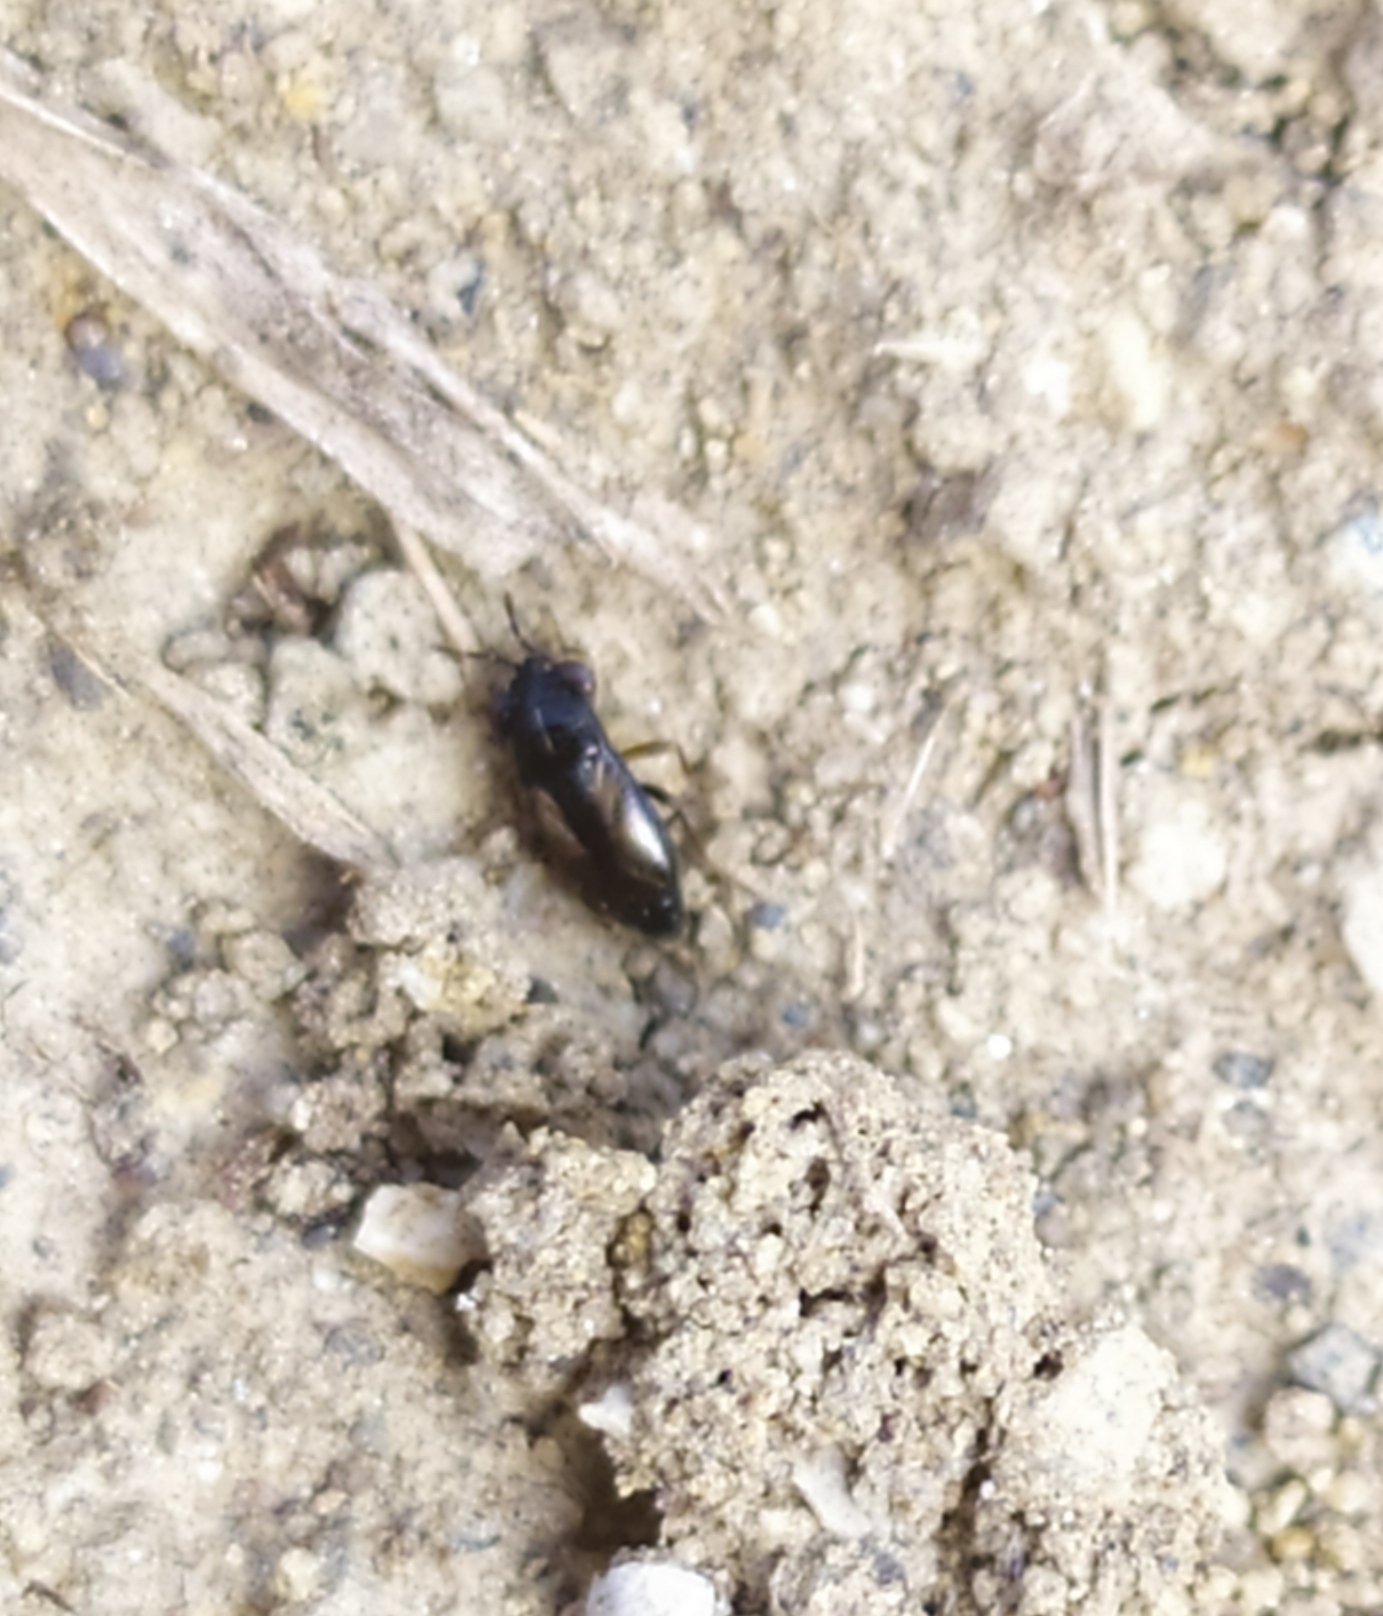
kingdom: Animalia
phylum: Arthropoda
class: Insecta
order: Hemiptera
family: Geocoridae
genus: Geocoris
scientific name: Geocoris ater
